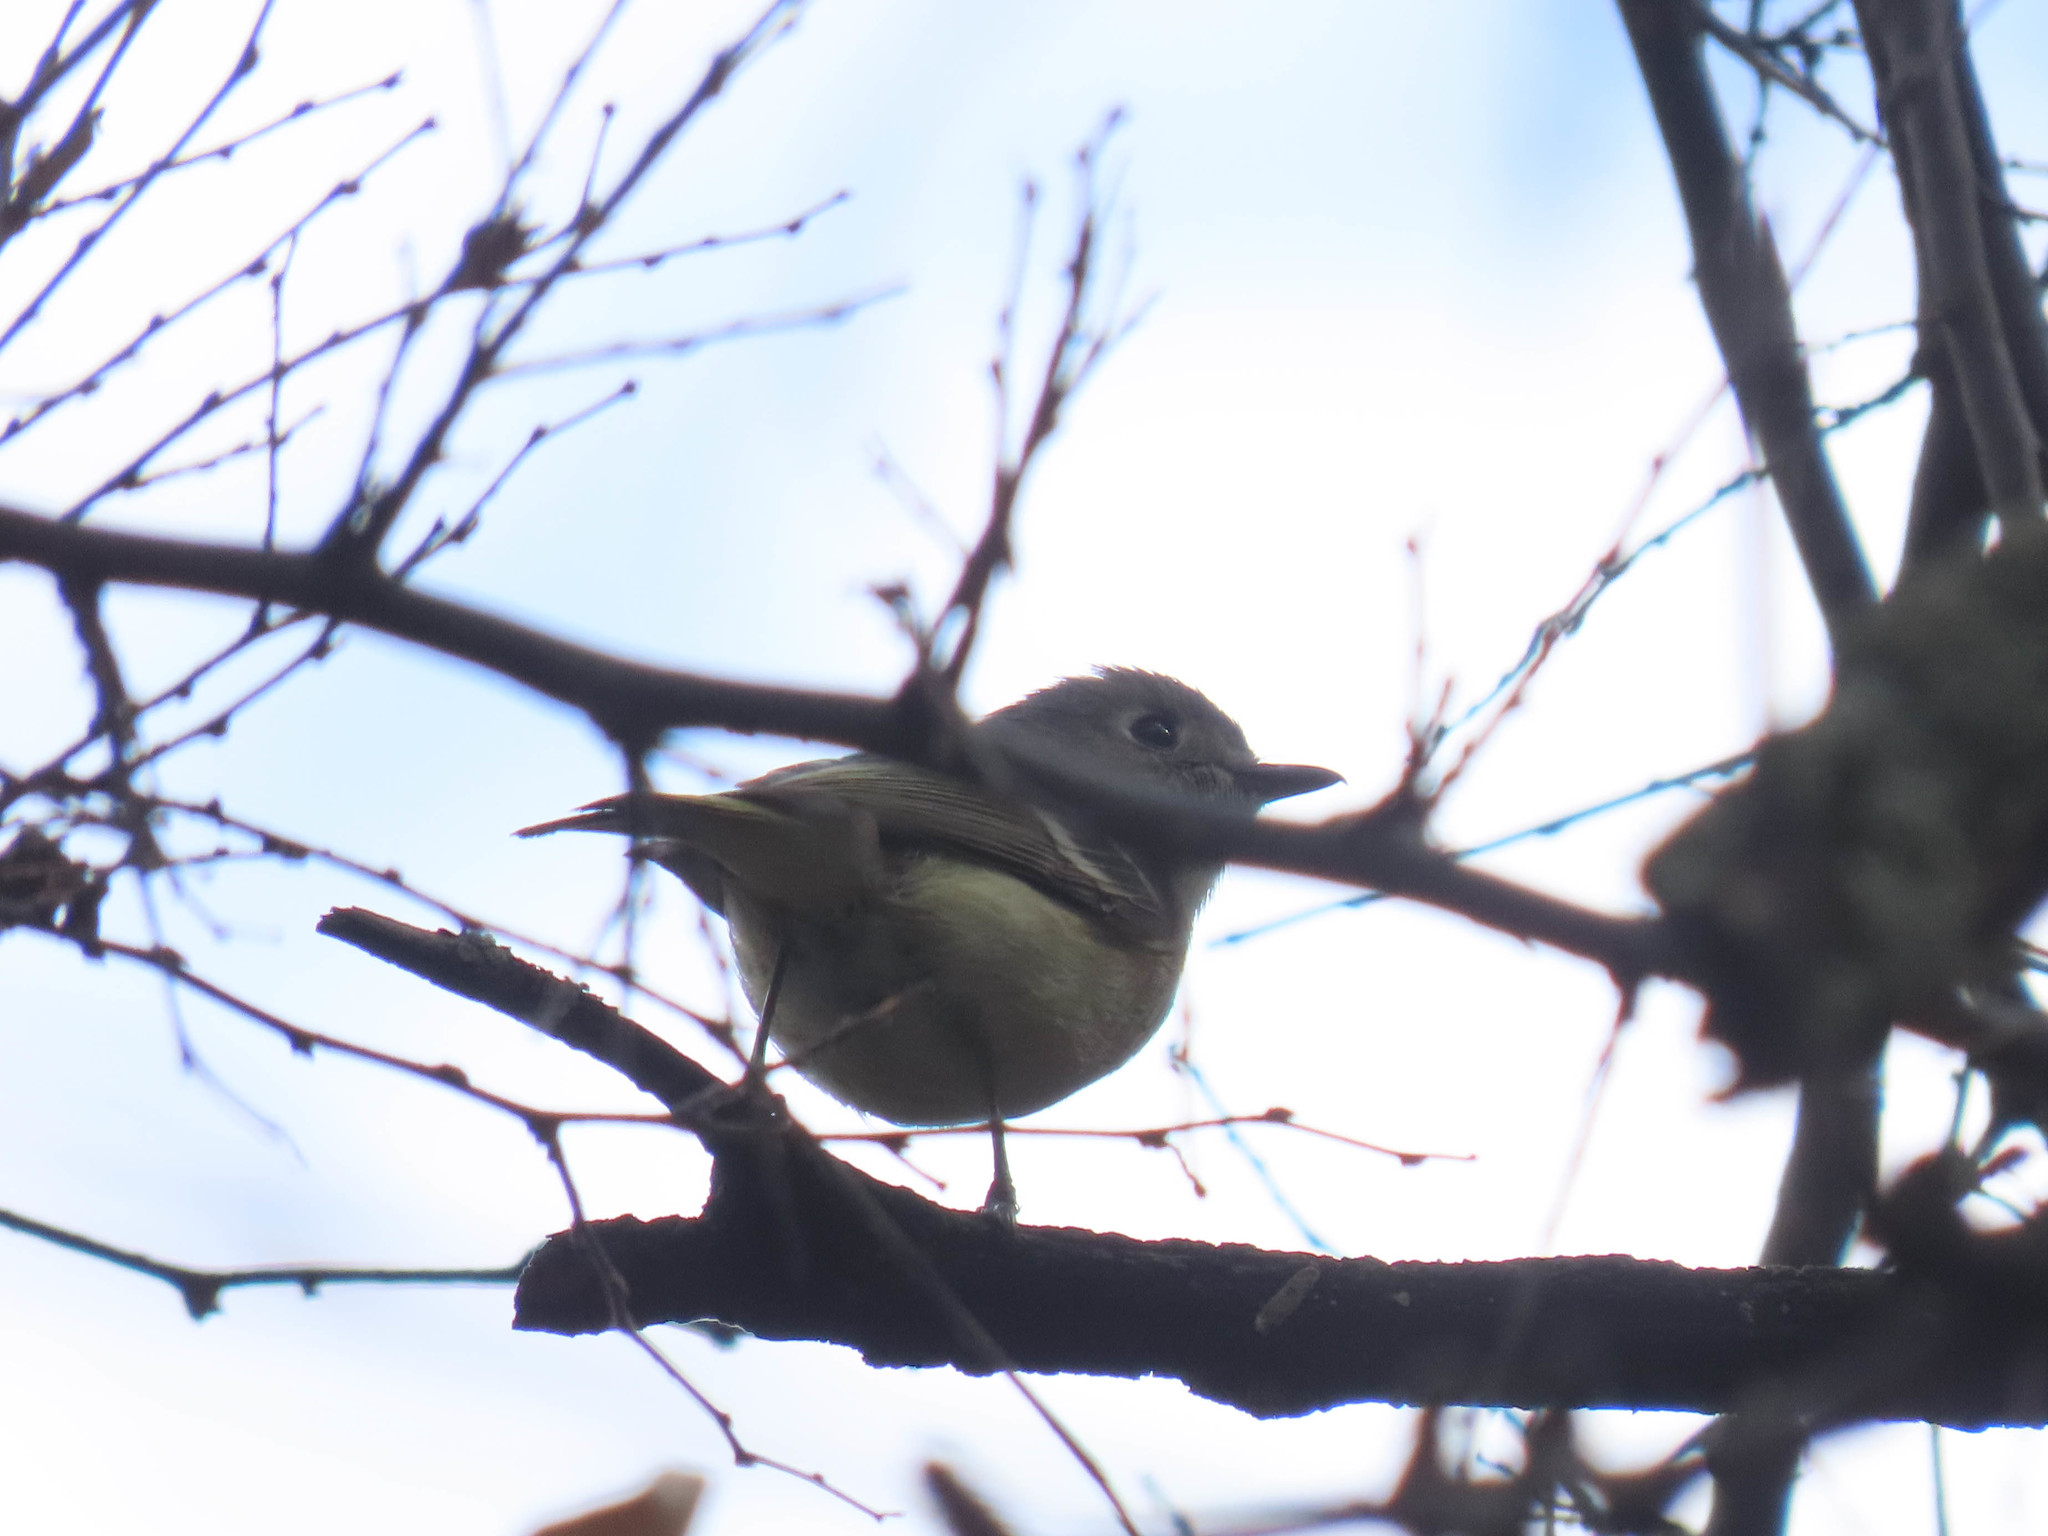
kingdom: Animalia
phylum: Chordata
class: Aves
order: Passeriformes
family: Vireonidae
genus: Vireo
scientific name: Vireo huttoni
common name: Hutton's vireo
